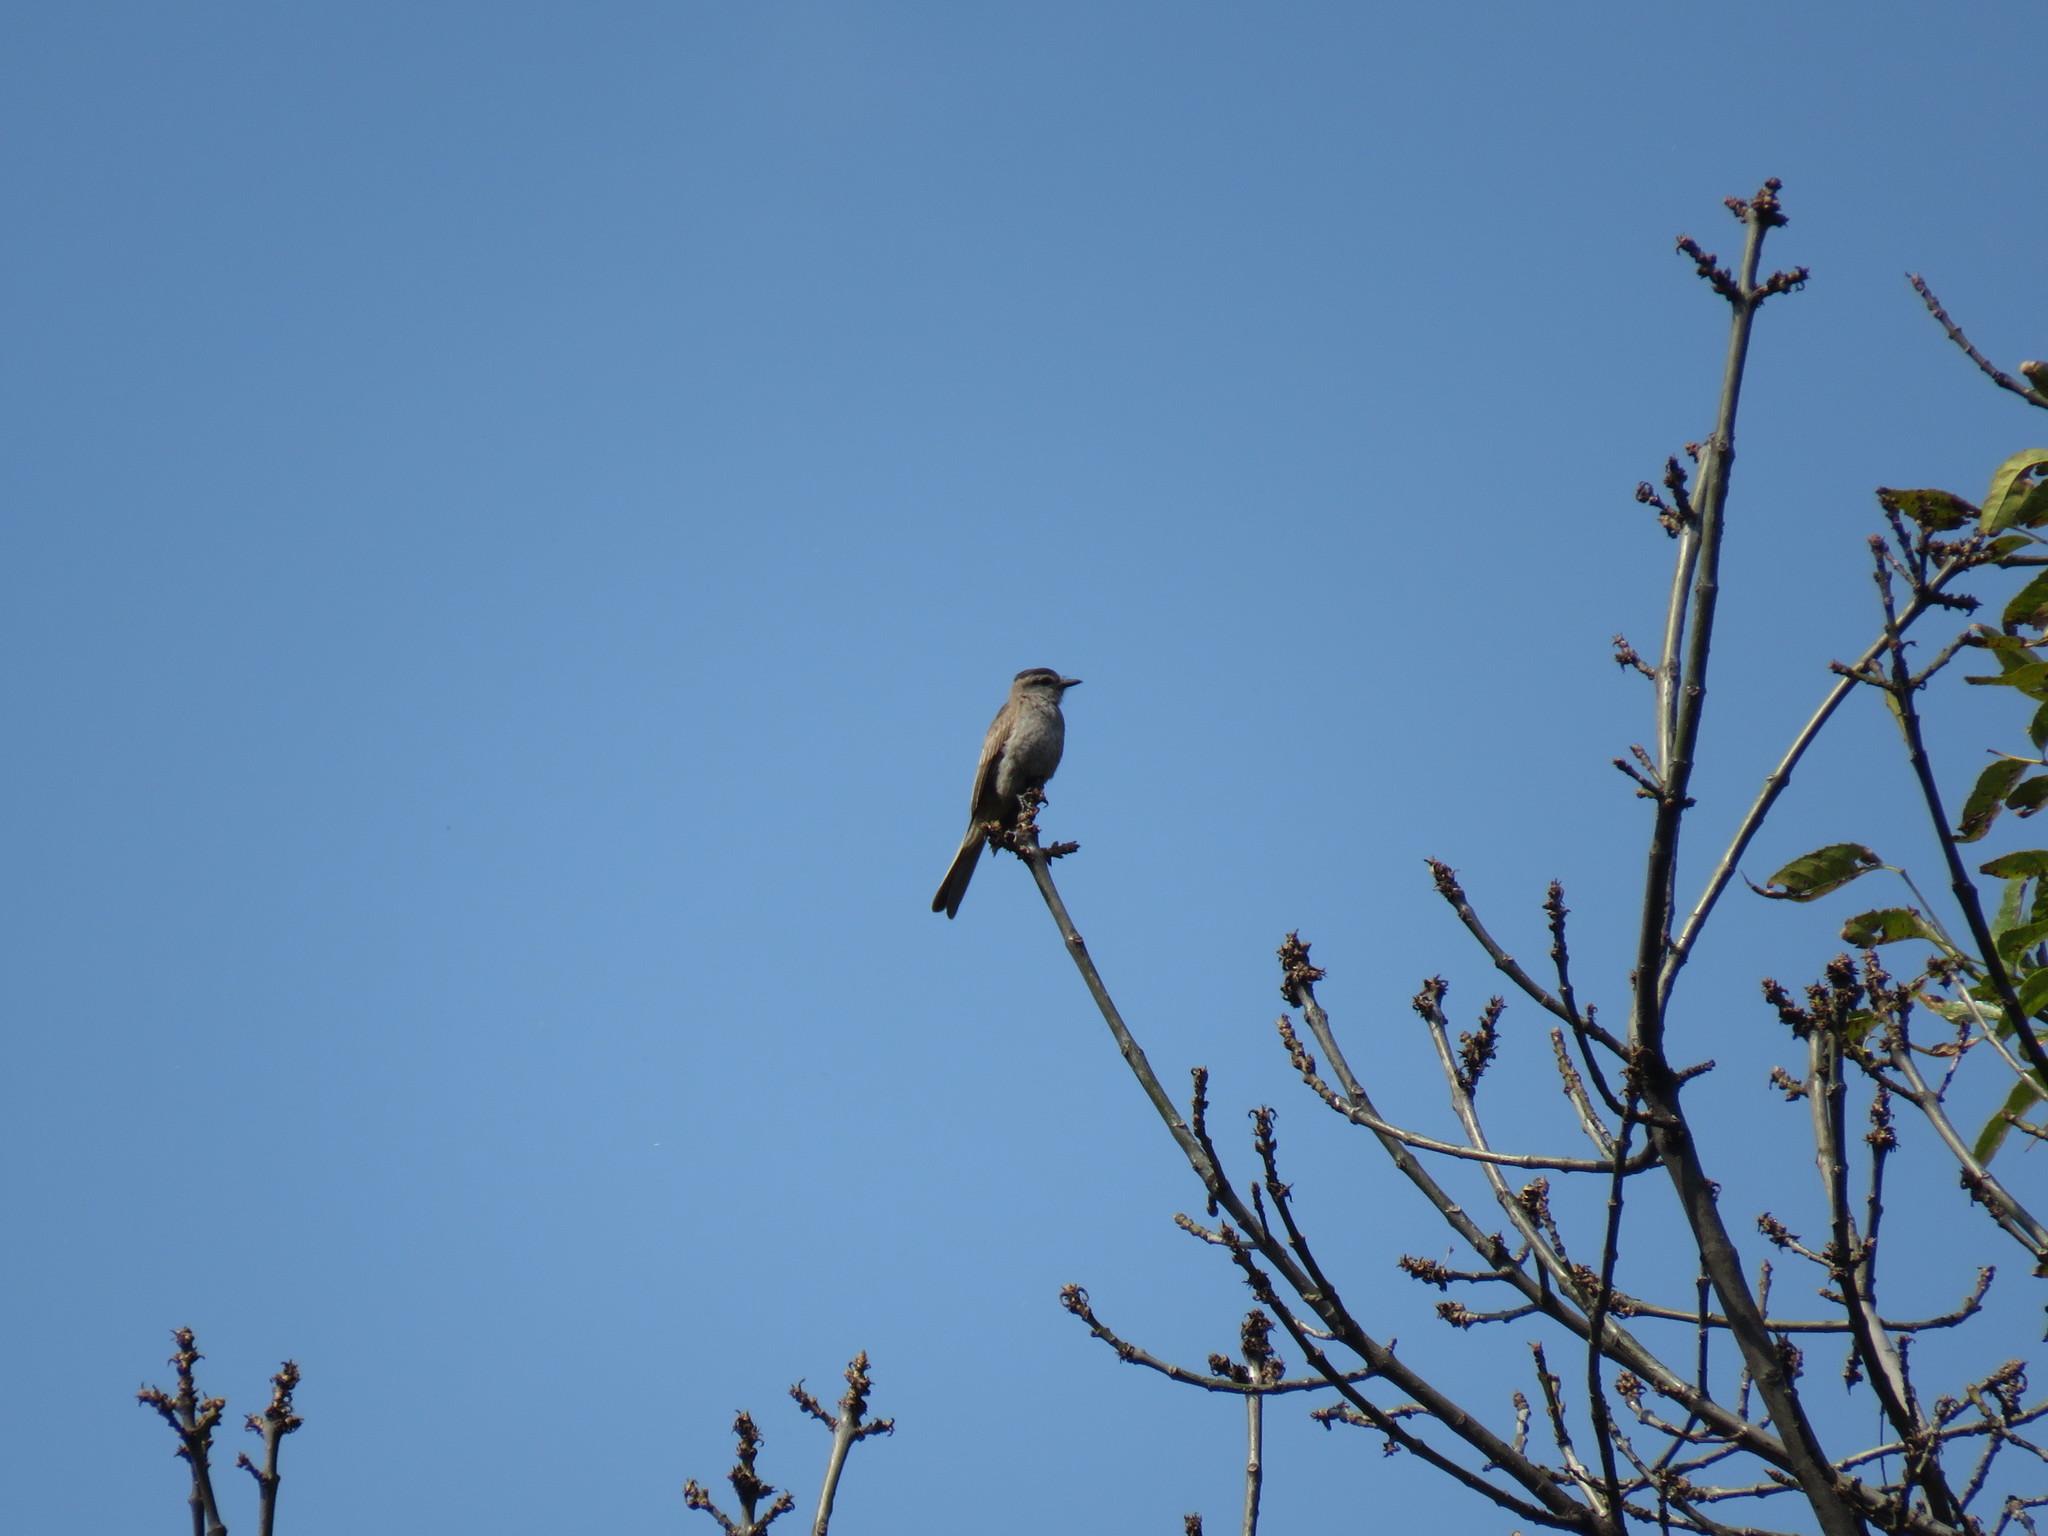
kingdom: Animalia
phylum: Chordata
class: Aves
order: Passeriformes
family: Tyrannidae
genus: Empidonomus
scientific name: Empidonomus aurantioatrocristatus
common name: Crowned slaty flycatcher
